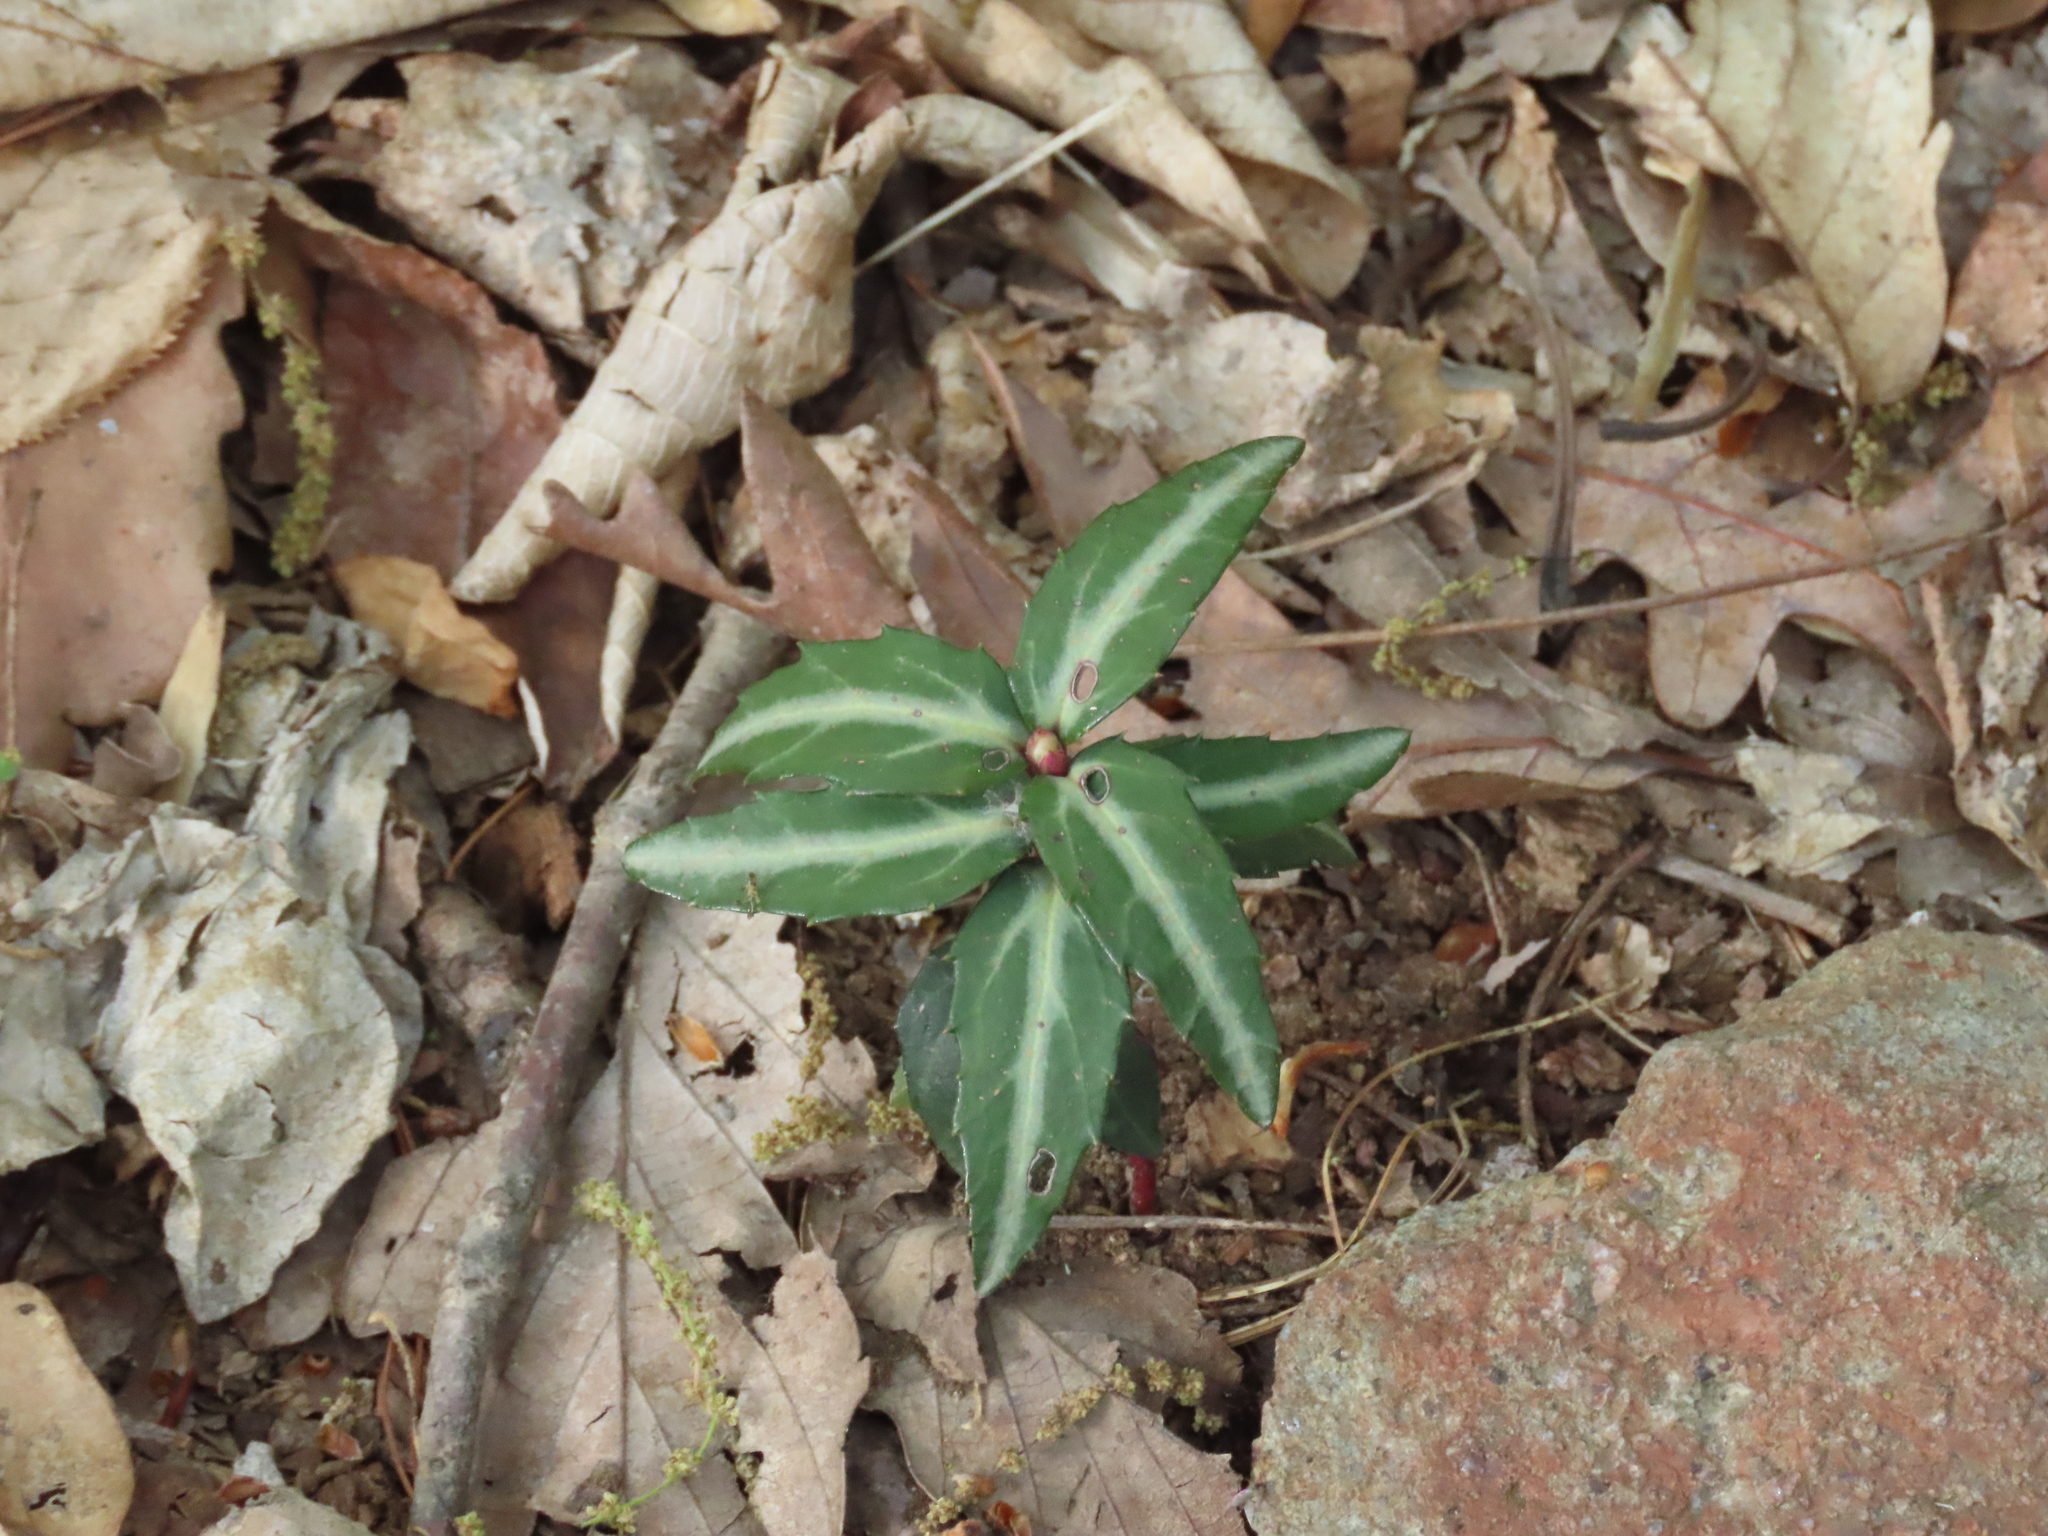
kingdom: Plantae
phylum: Tracheophyta
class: Magnoliopsida
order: Ericales
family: Ericaceae
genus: Chimaphila
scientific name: Chimaphila maculata
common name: Spotted pipsissewa
